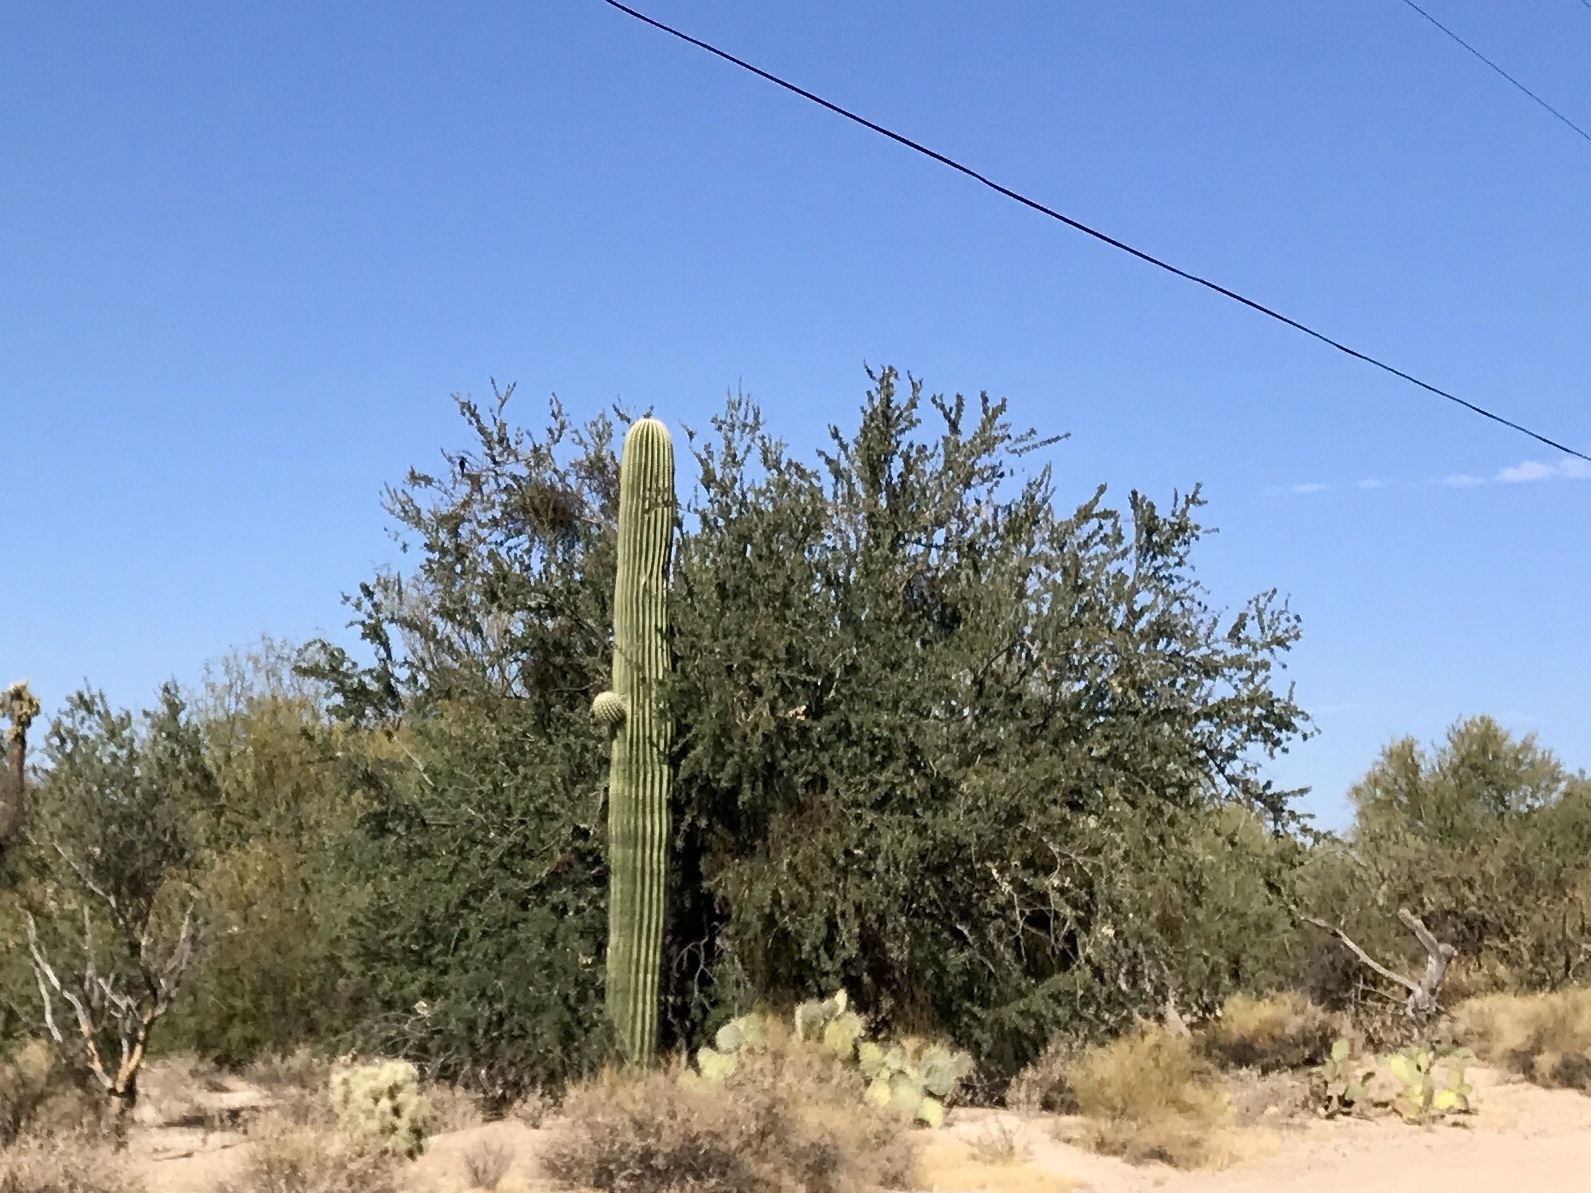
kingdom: Plantae
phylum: Tracheophyta
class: Magnoliopsida
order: Fabales
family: Fabaceae
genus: Olneya
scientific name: Olneya tesota
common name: Desert ironwood
